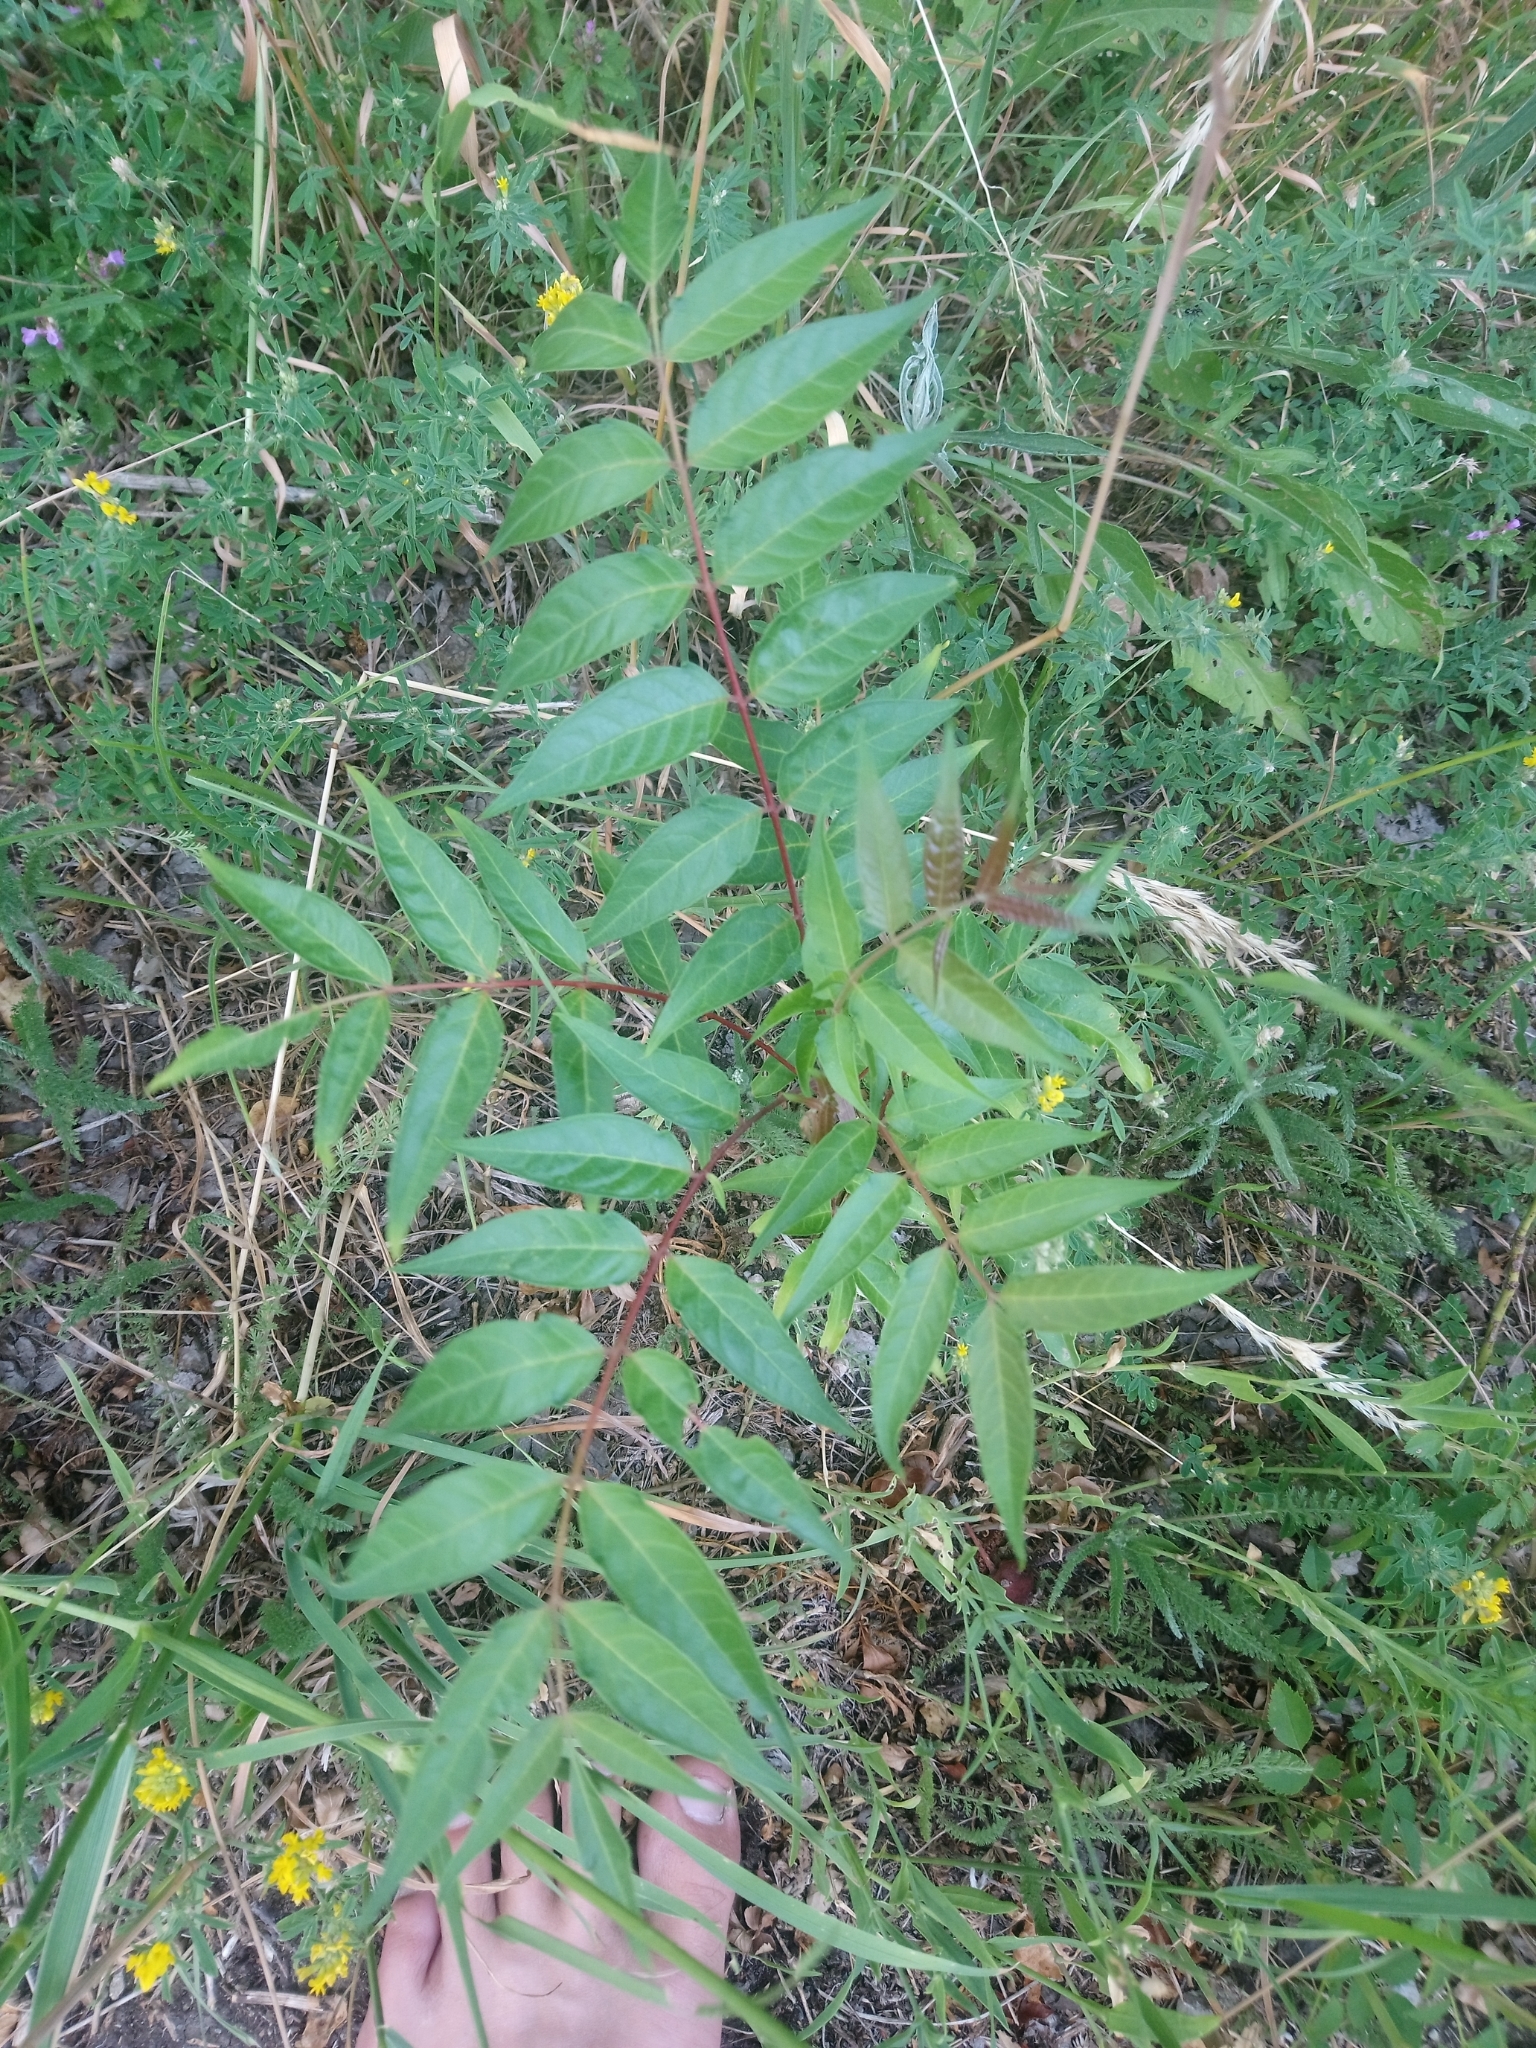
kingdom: Plantae
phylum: Tracheophyta
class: Magnoliopsida
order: Sapindales
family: Simaroubaceae
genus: Ailanthus
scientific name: Ailanthus altissima
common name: Tree-of-heaven
